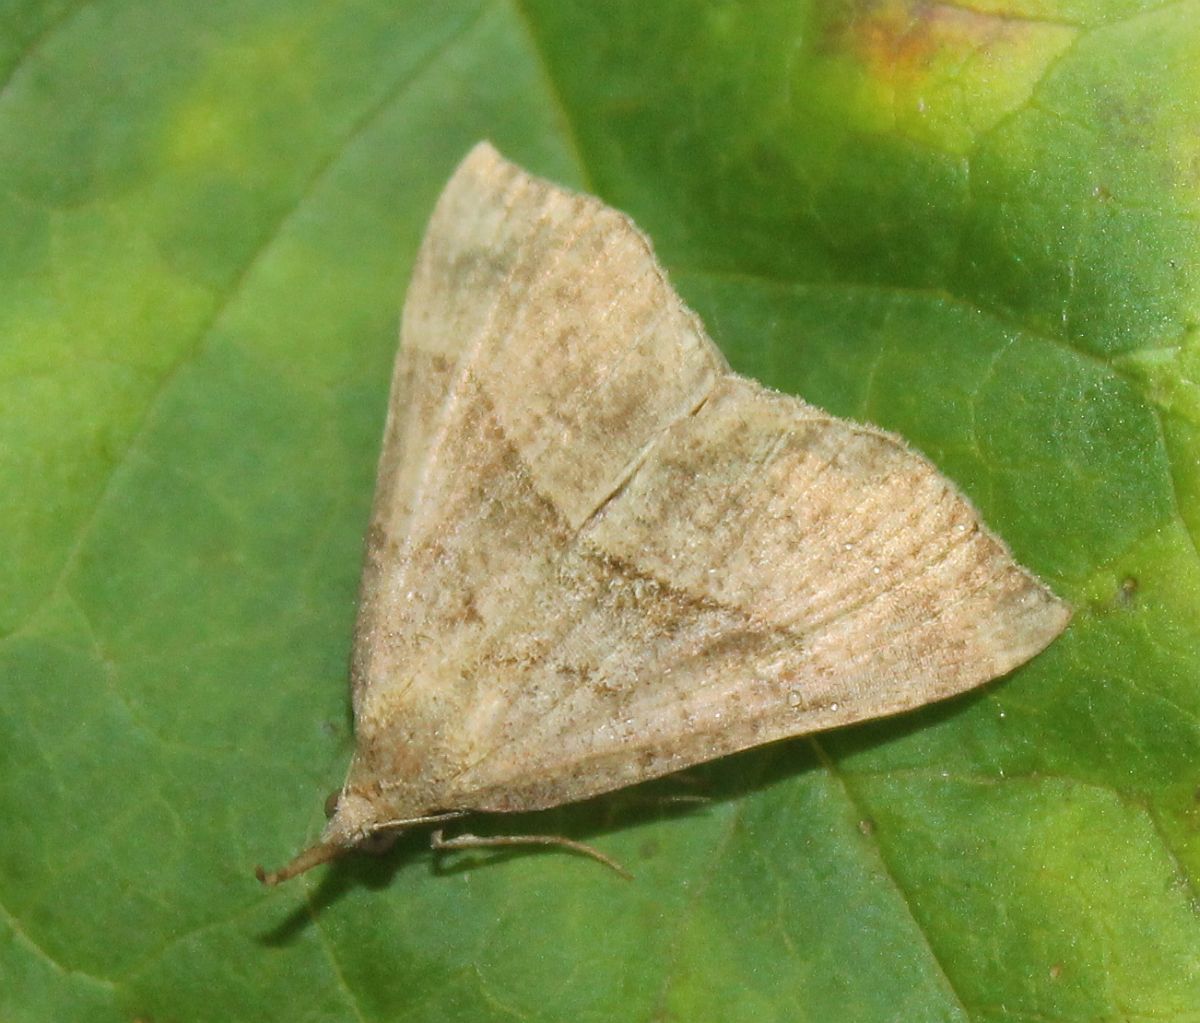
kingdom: Animalia
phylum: Arthropoda
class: Insecta
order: Lepidoptera
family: Erebidae
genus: Hypena
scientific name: Hypena proboscidalis
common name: Snout
